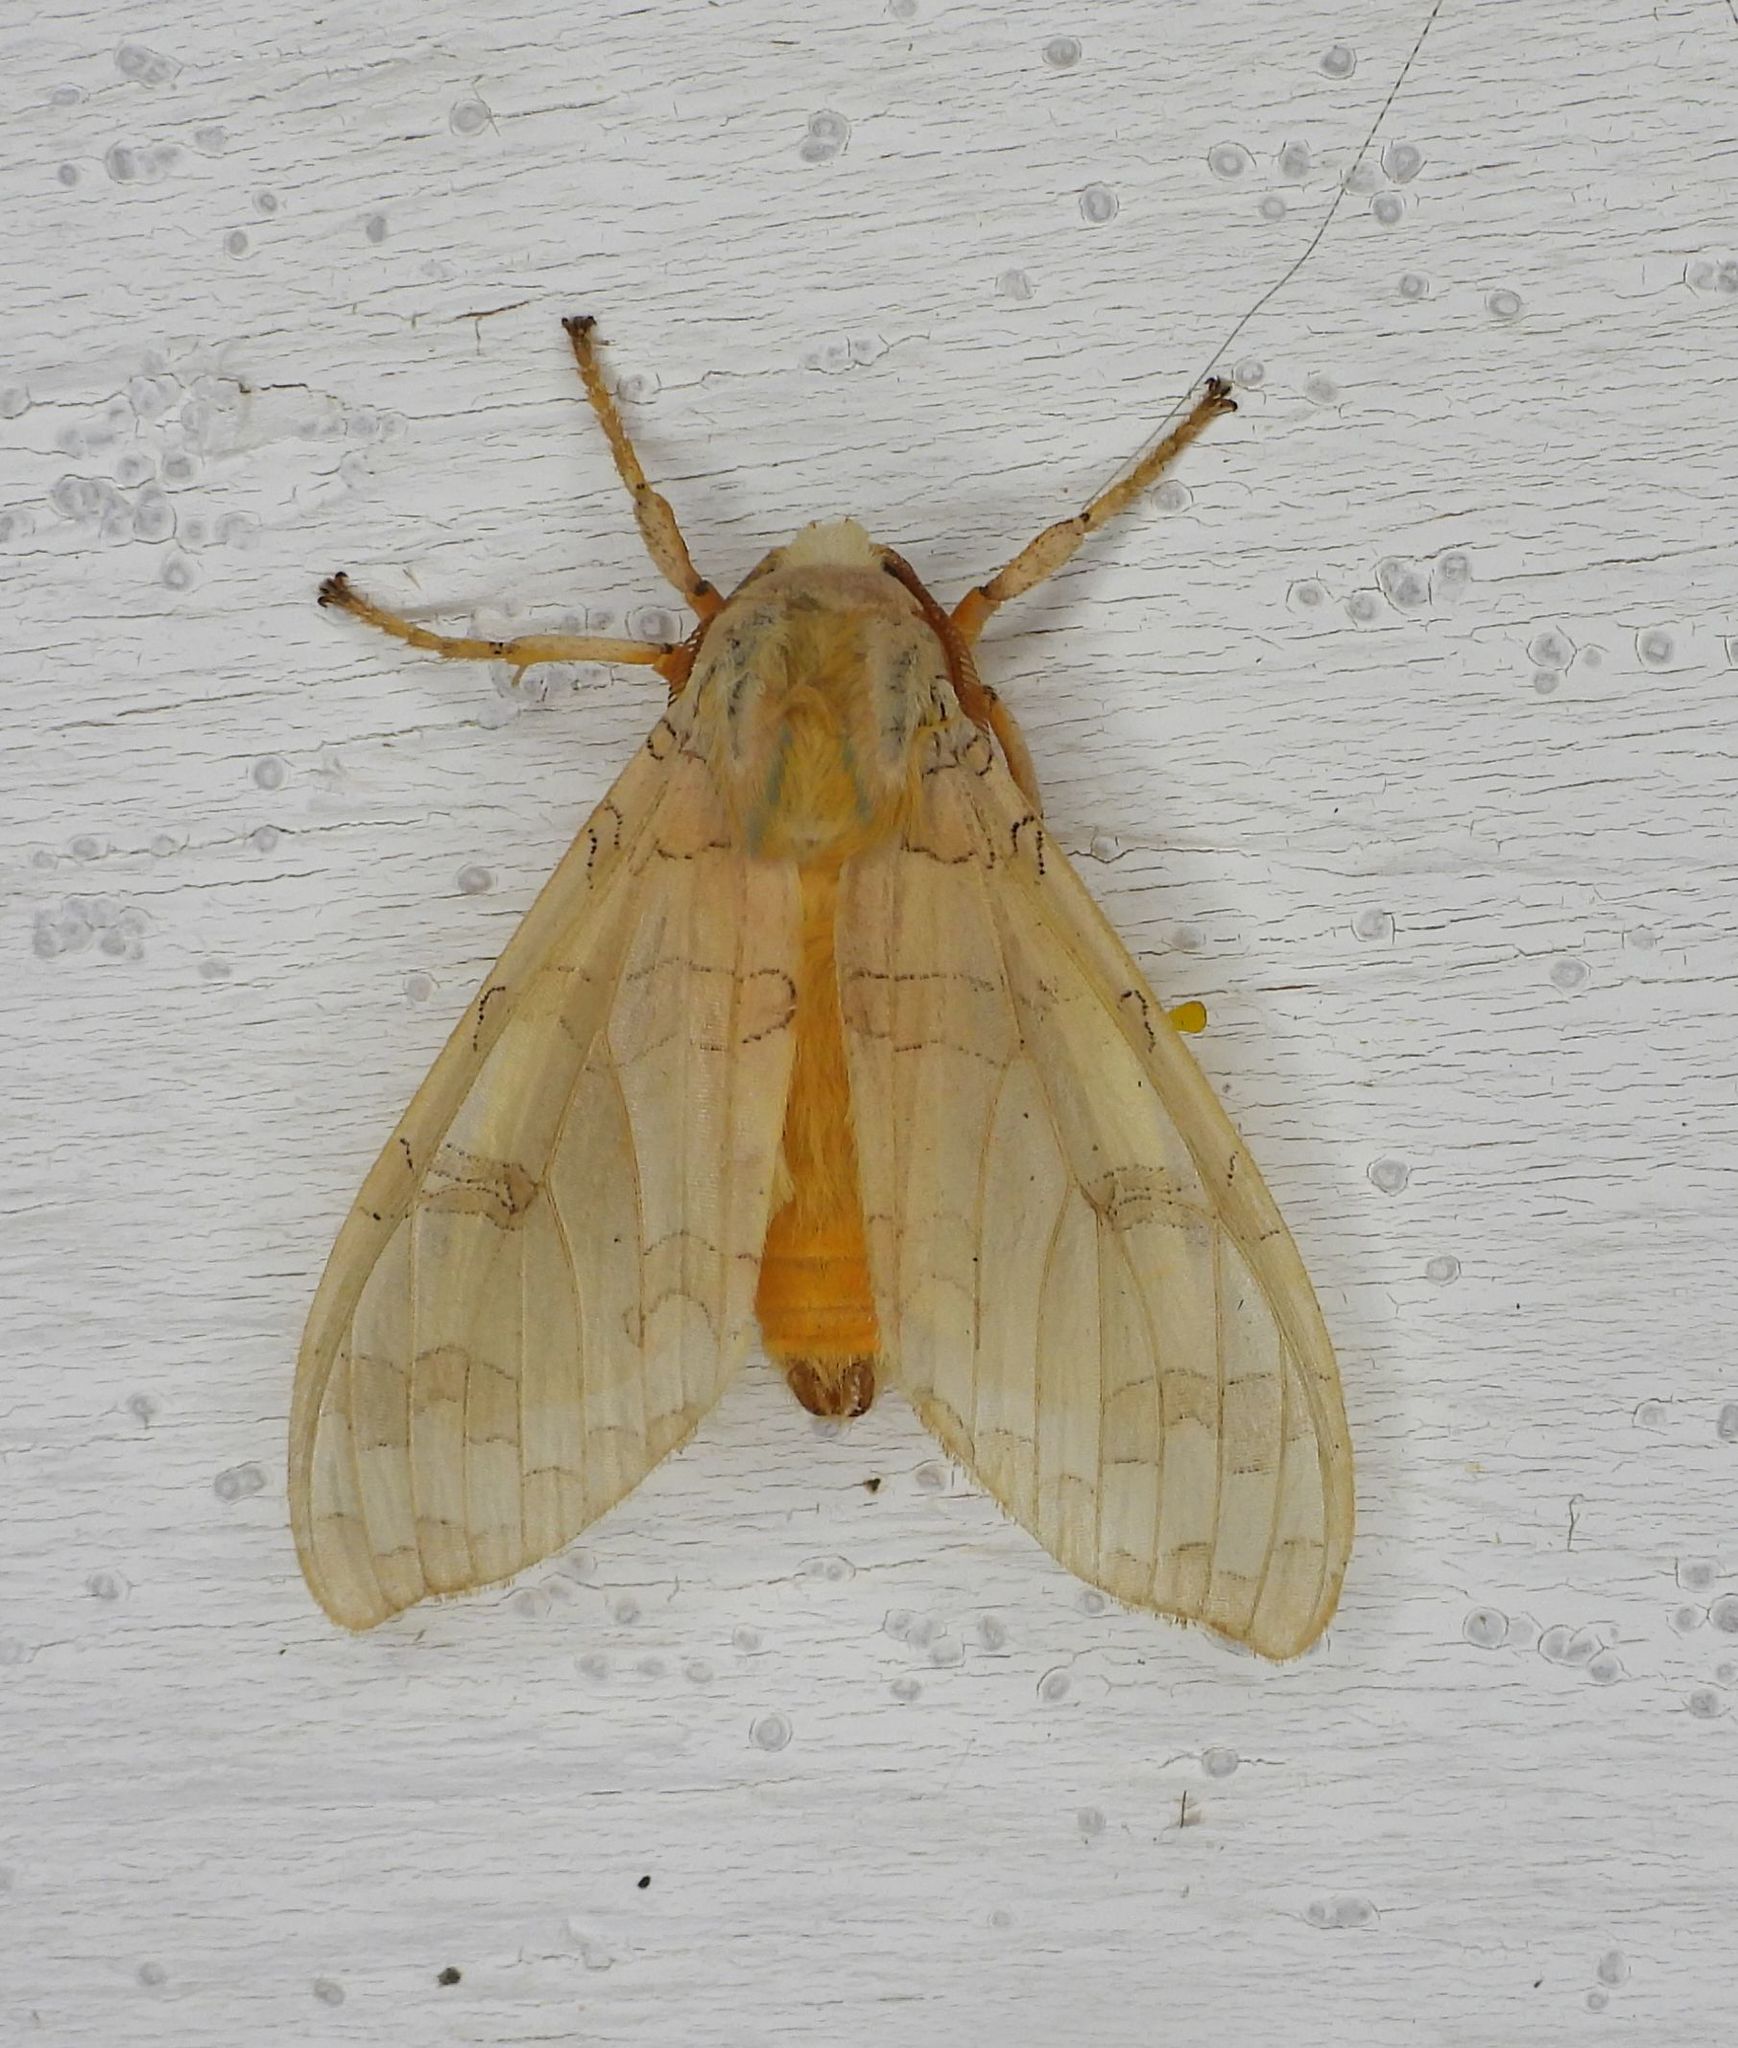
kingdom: Animalia
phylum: Arthropoda
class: Insecta
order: Lepidoptera
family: Erebidae
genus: Halysidota
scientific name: Halysidota tessellaris
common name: Banded tussock moth
